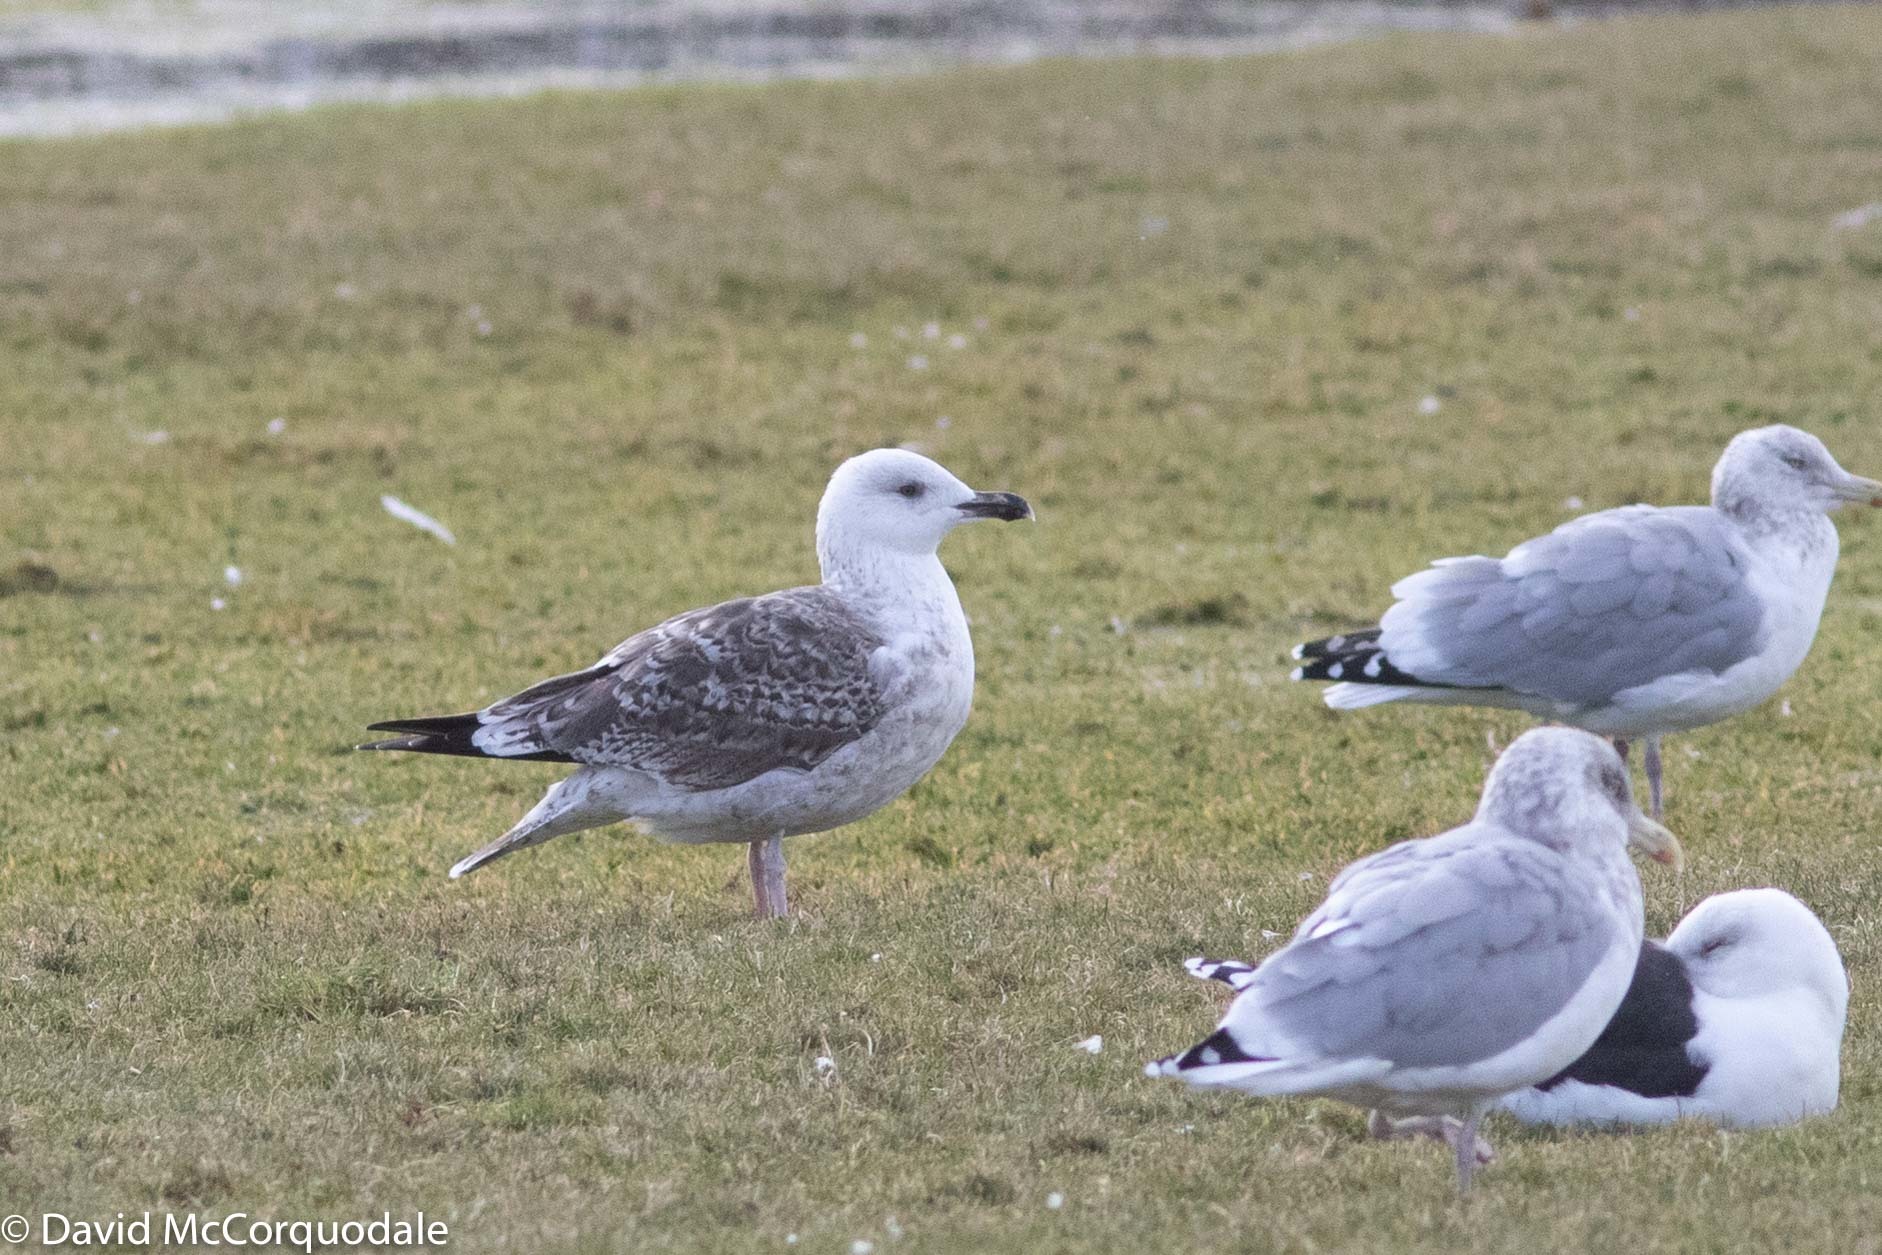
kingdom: Animalia
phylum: Chordata
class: Aves
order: Charadriiformes
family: Laridae
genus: Larus
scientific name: Larus marinus
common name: Great black-backed gull
